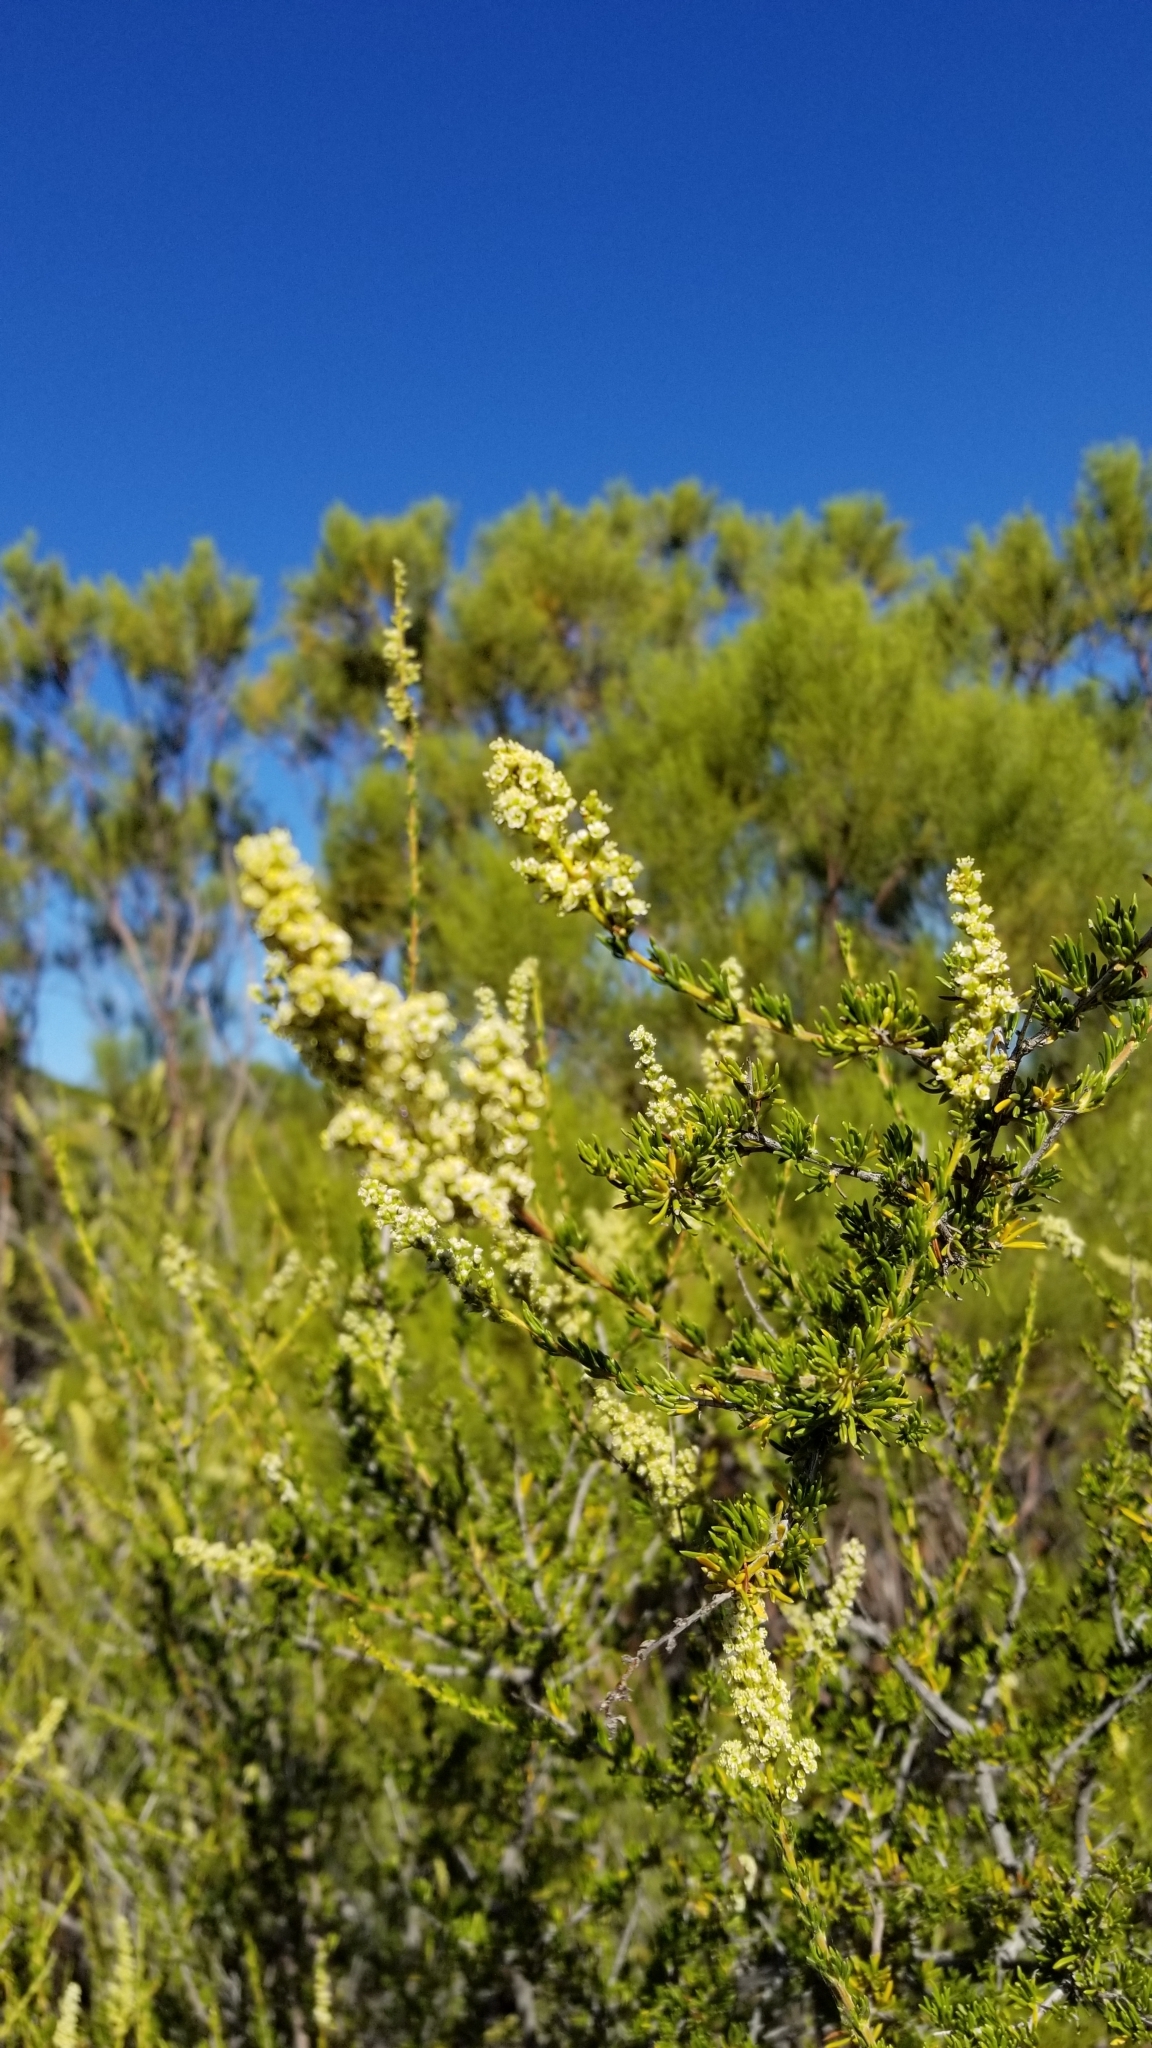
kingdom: Plantae
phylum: Tracheophyta
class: Magnoliopsida
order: Rosales
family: Rosaceae
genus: Adenostoma
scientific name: Adenostoma fasciculatum
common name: Chamise
